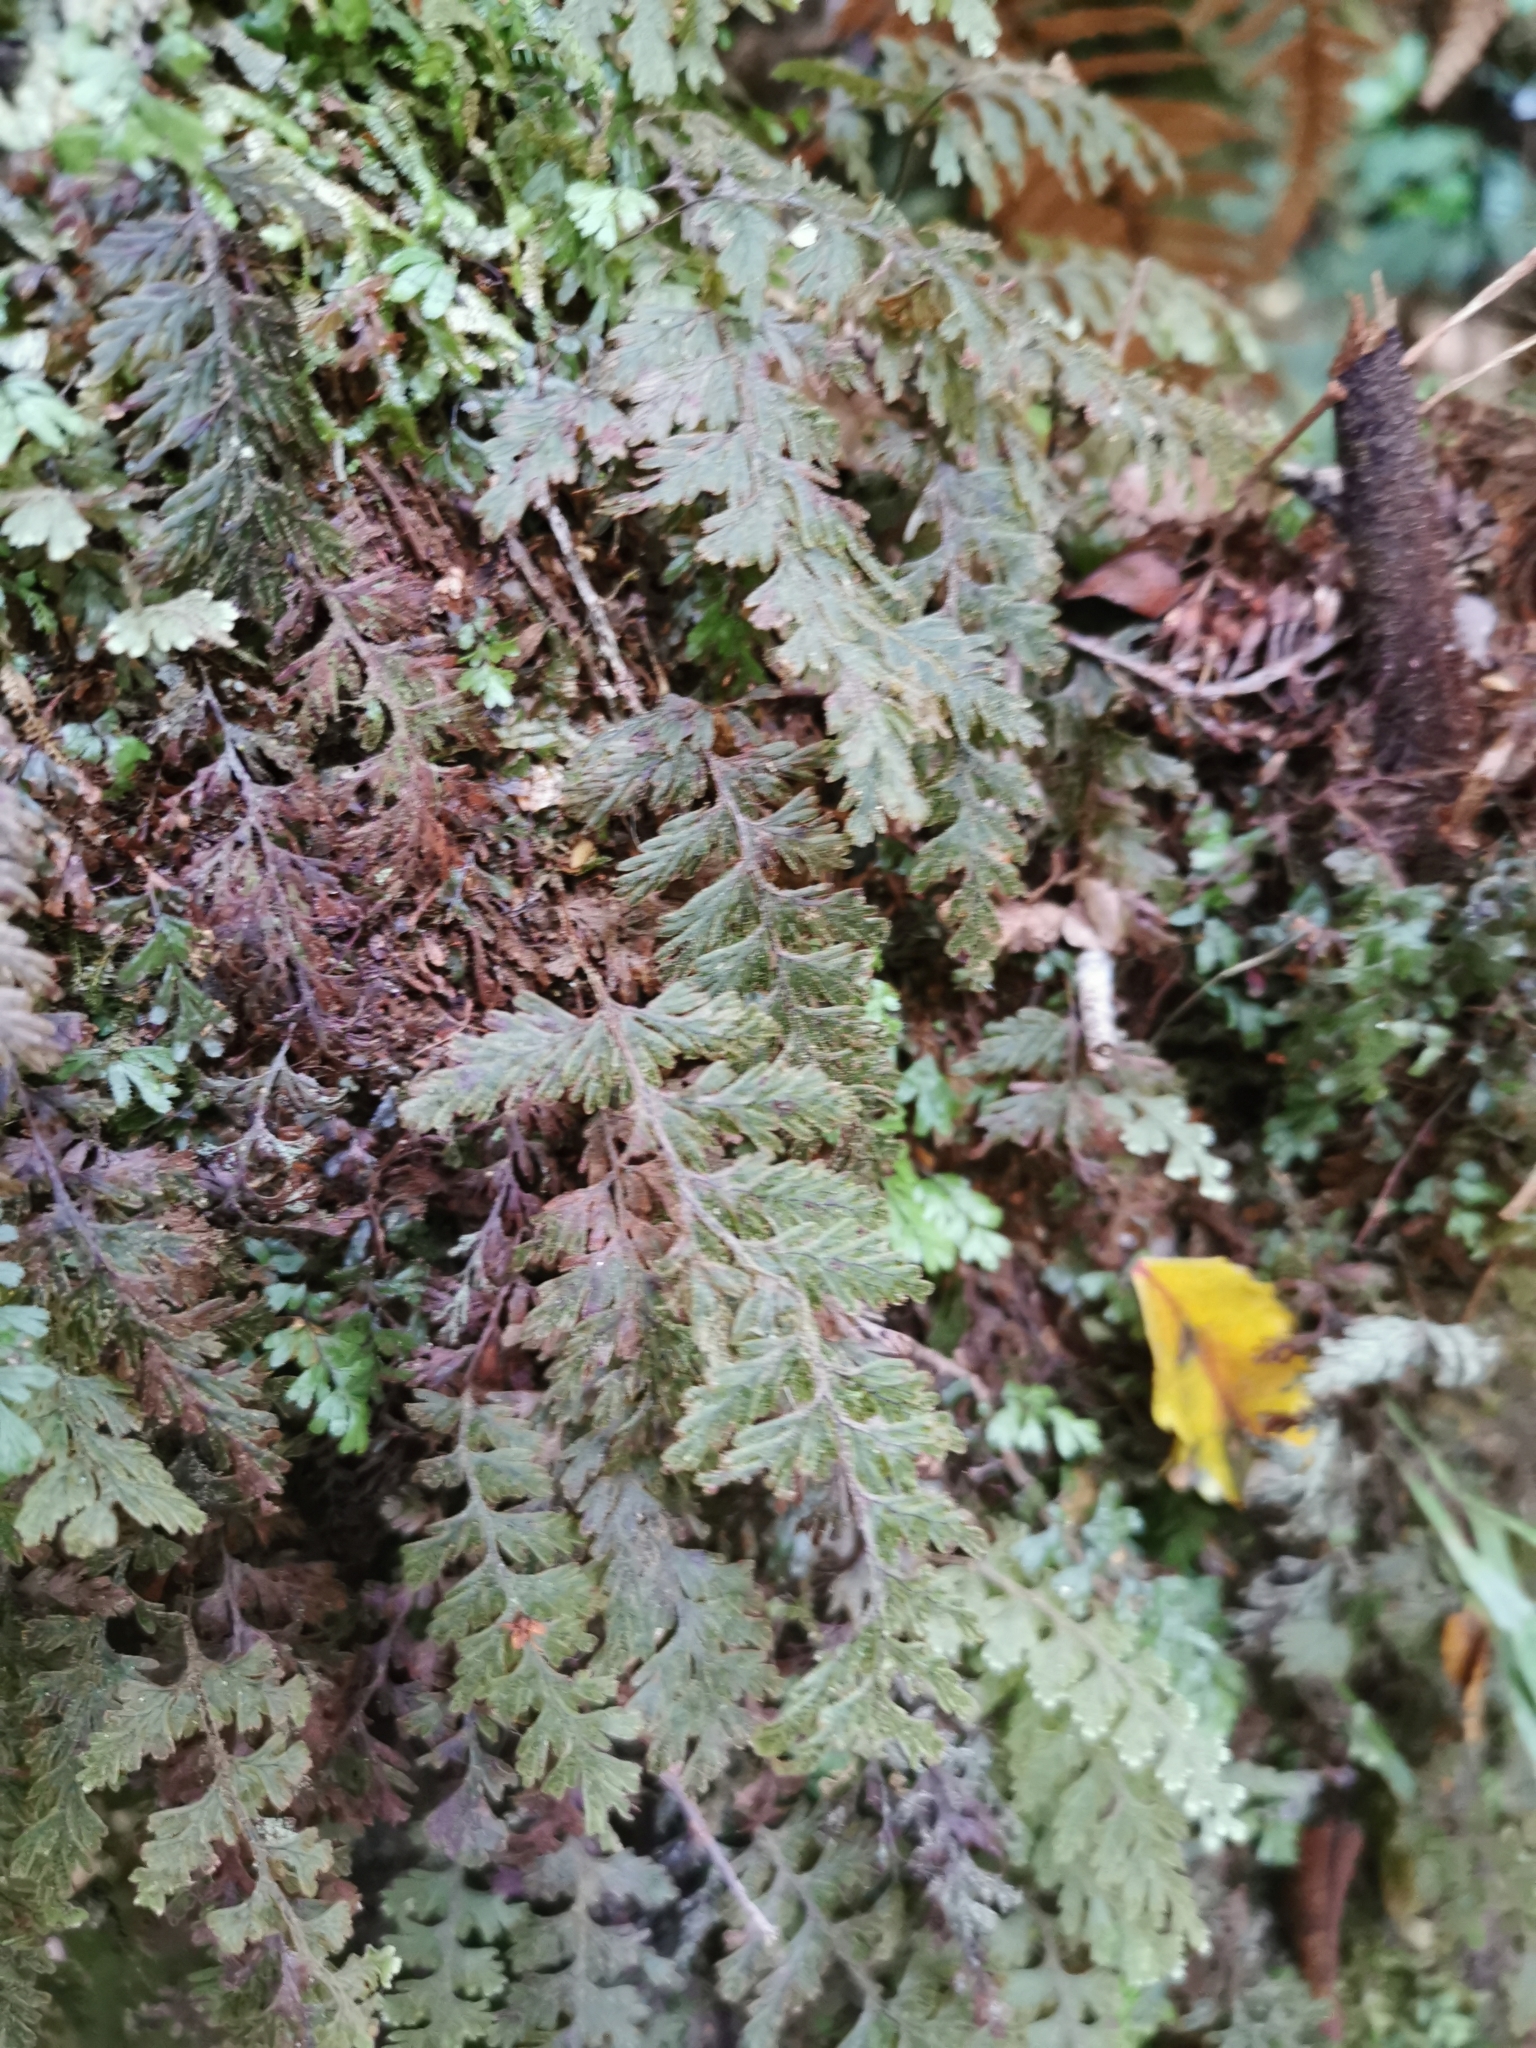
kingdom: Plantae
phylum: Tracheophyta
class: Polypodiopsida
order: Hymenophyllales
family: Hymenophyllaceae
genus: Hymenophyllum
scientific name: Hymenophyllum frankliniae
